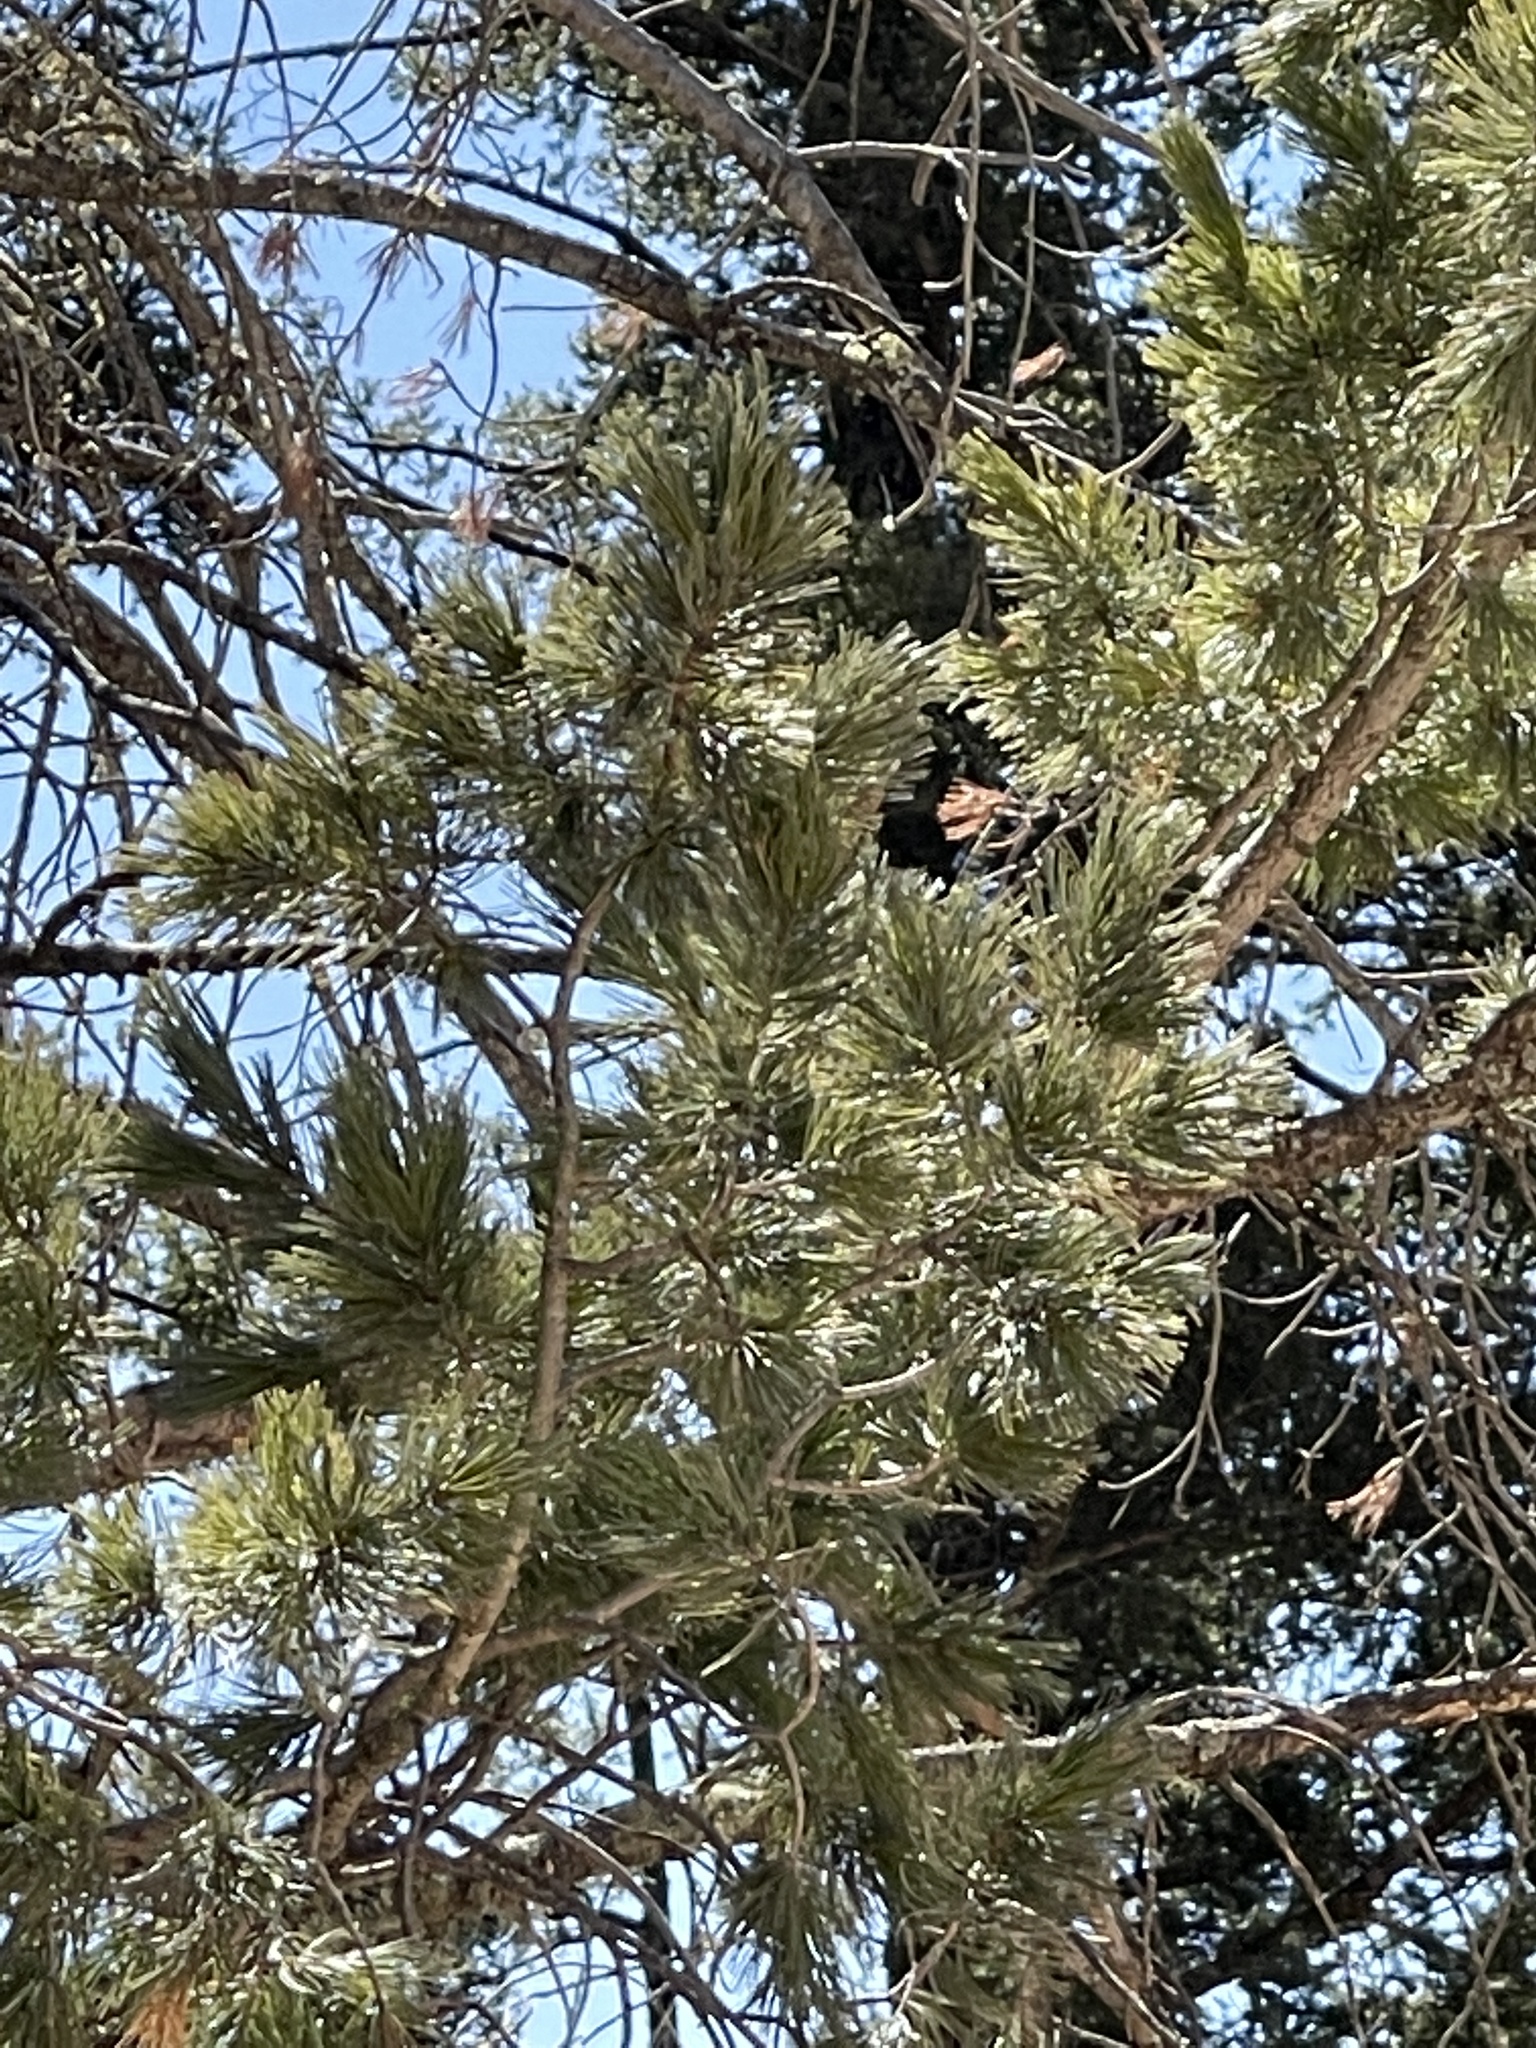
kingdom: Plantae
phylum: Tracheophyta
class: Pinopsida
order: Pinales
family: Pinaceae
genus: Pinus
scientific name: Pinus strobiformis
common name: Southwestern white pine
